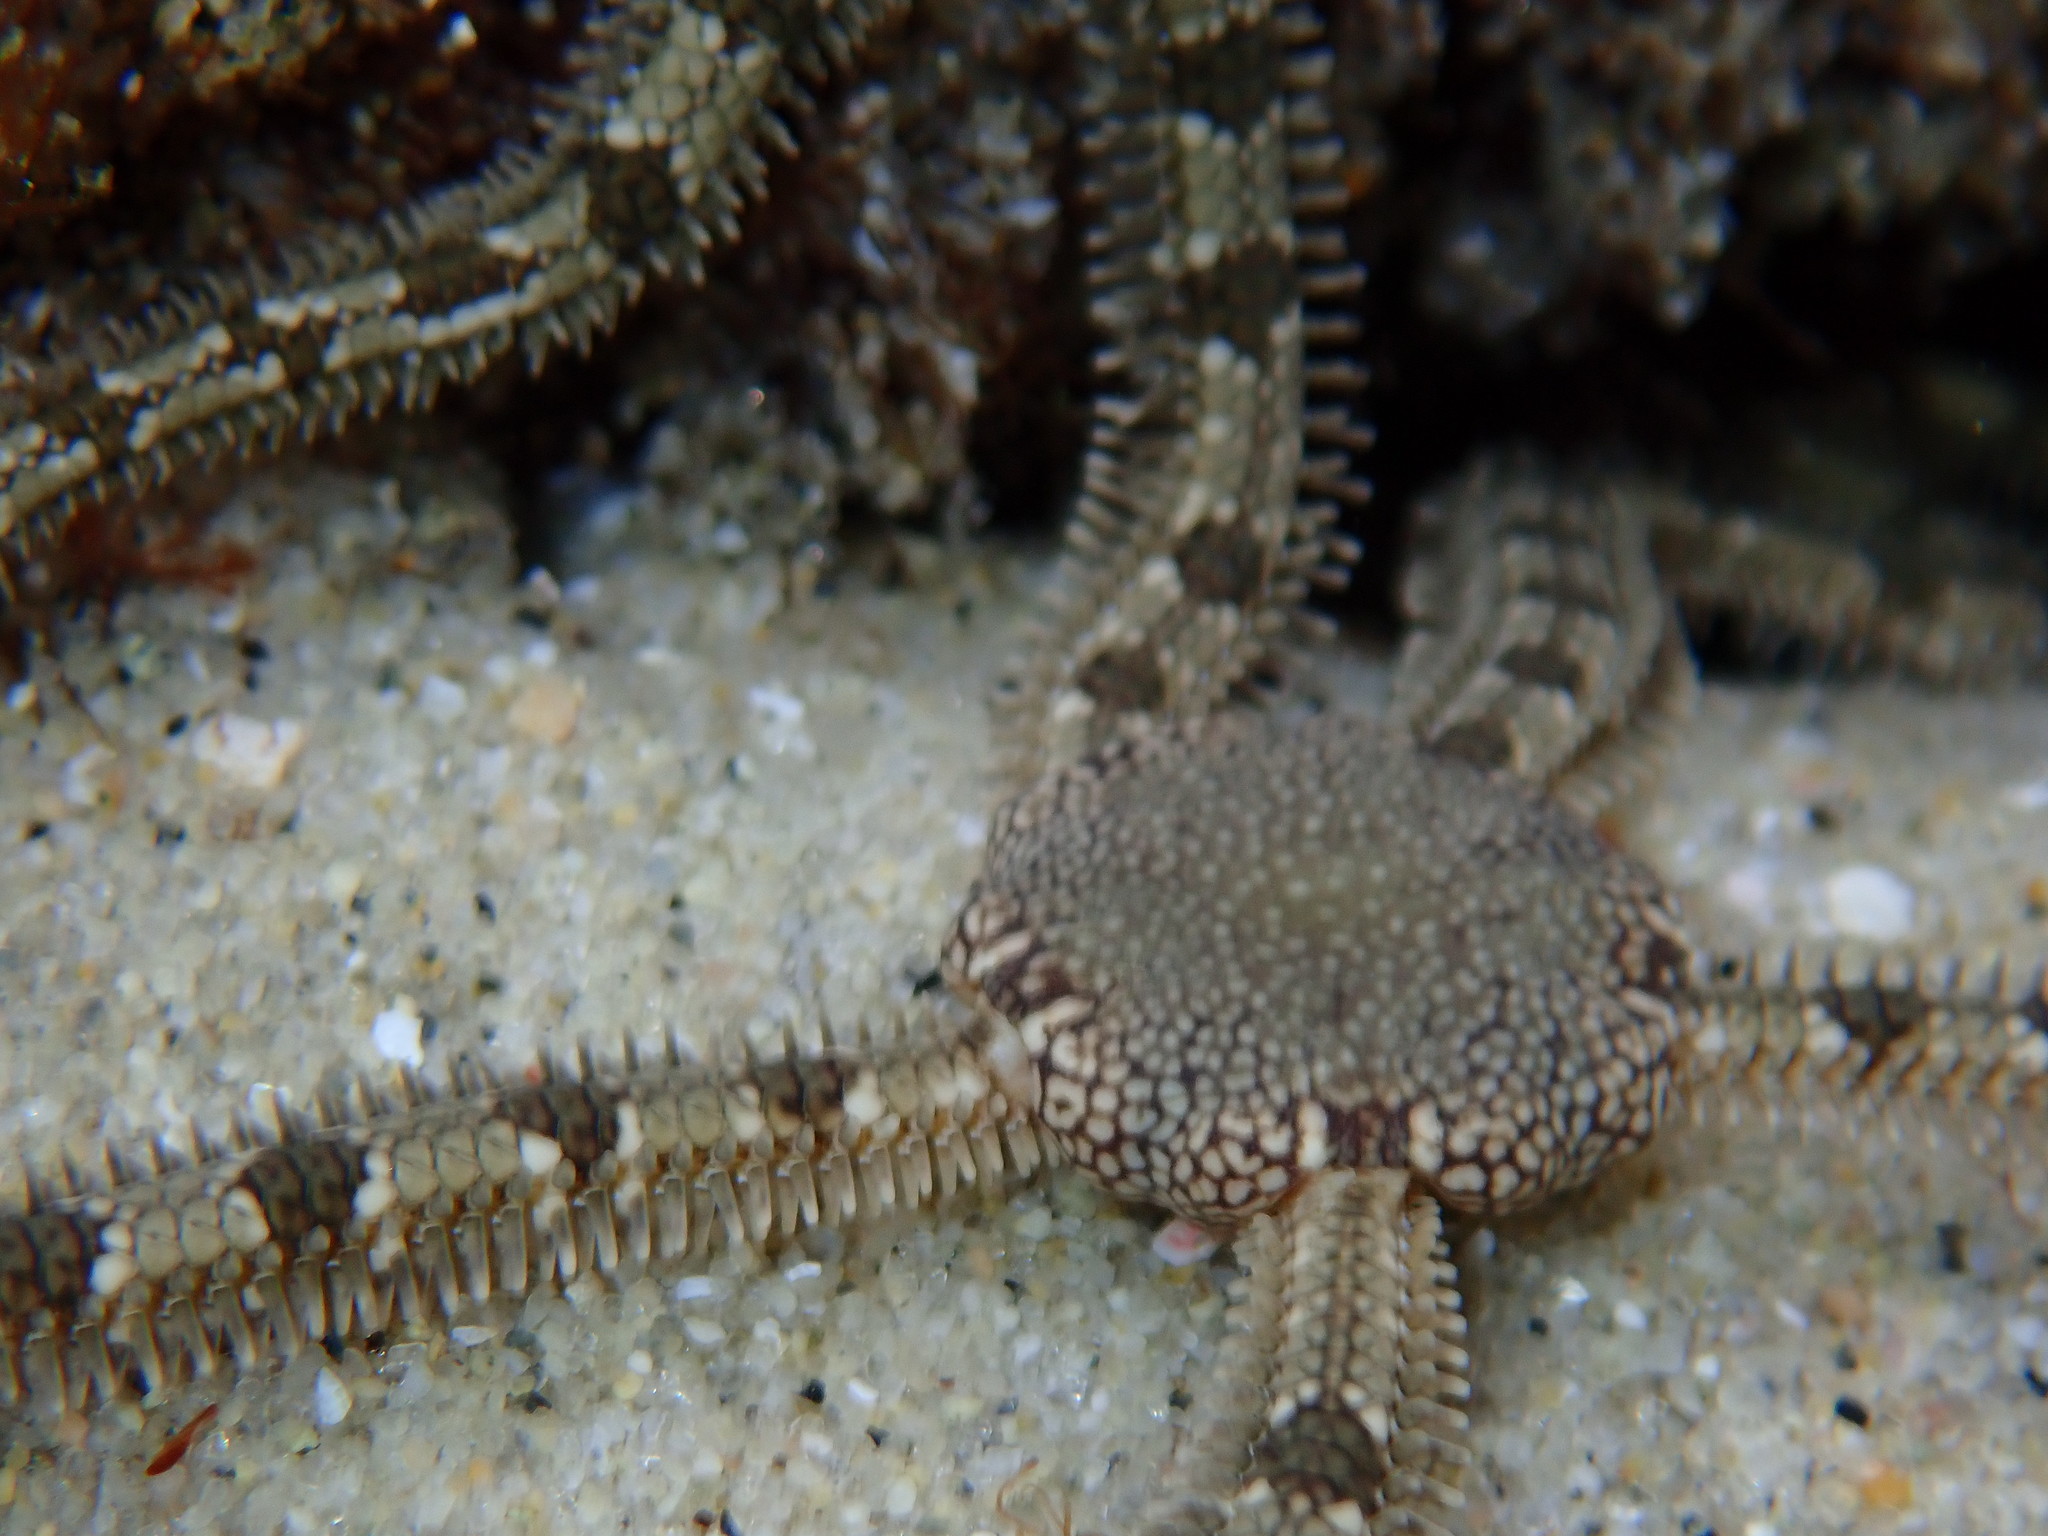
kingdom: Animalia
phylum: Echinodermata
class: Ophiuroidea
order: Amphilepidida
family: Ophionereididae
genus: Ophionereis
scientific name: Ophionereis annulata
